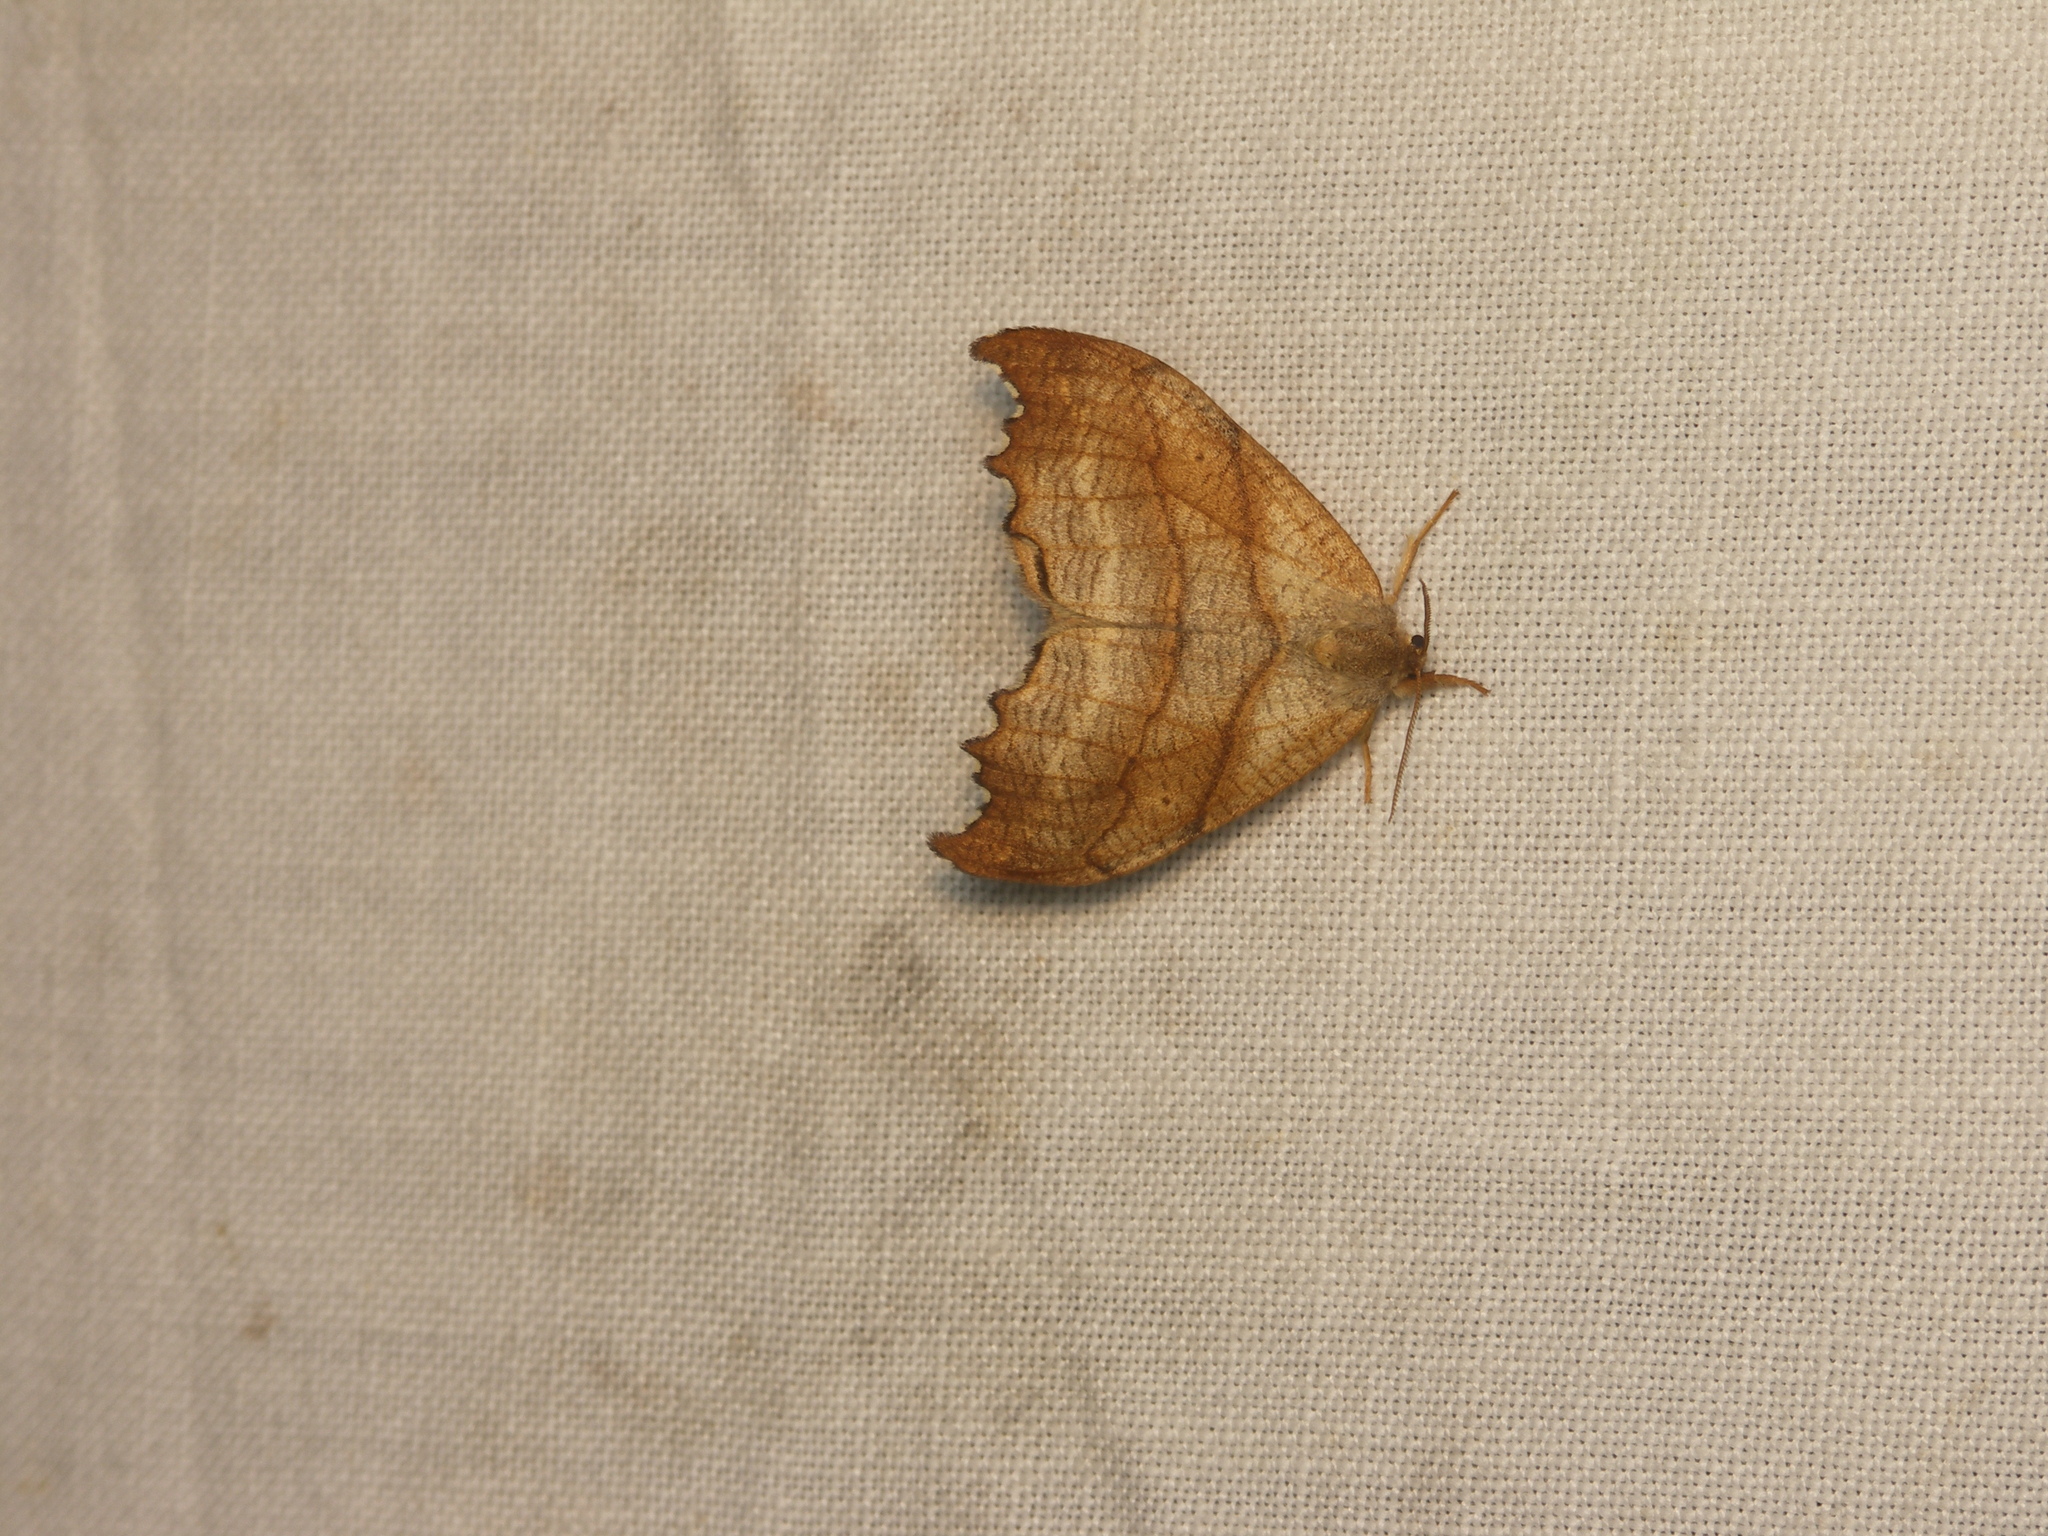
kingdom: Animalia
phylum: Arthropoda
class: Insecta
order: Lepidoptera
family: Drepanidae
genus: Falcaria
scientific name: Falcaria lacertinaria
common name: Scalloped hook-tip
